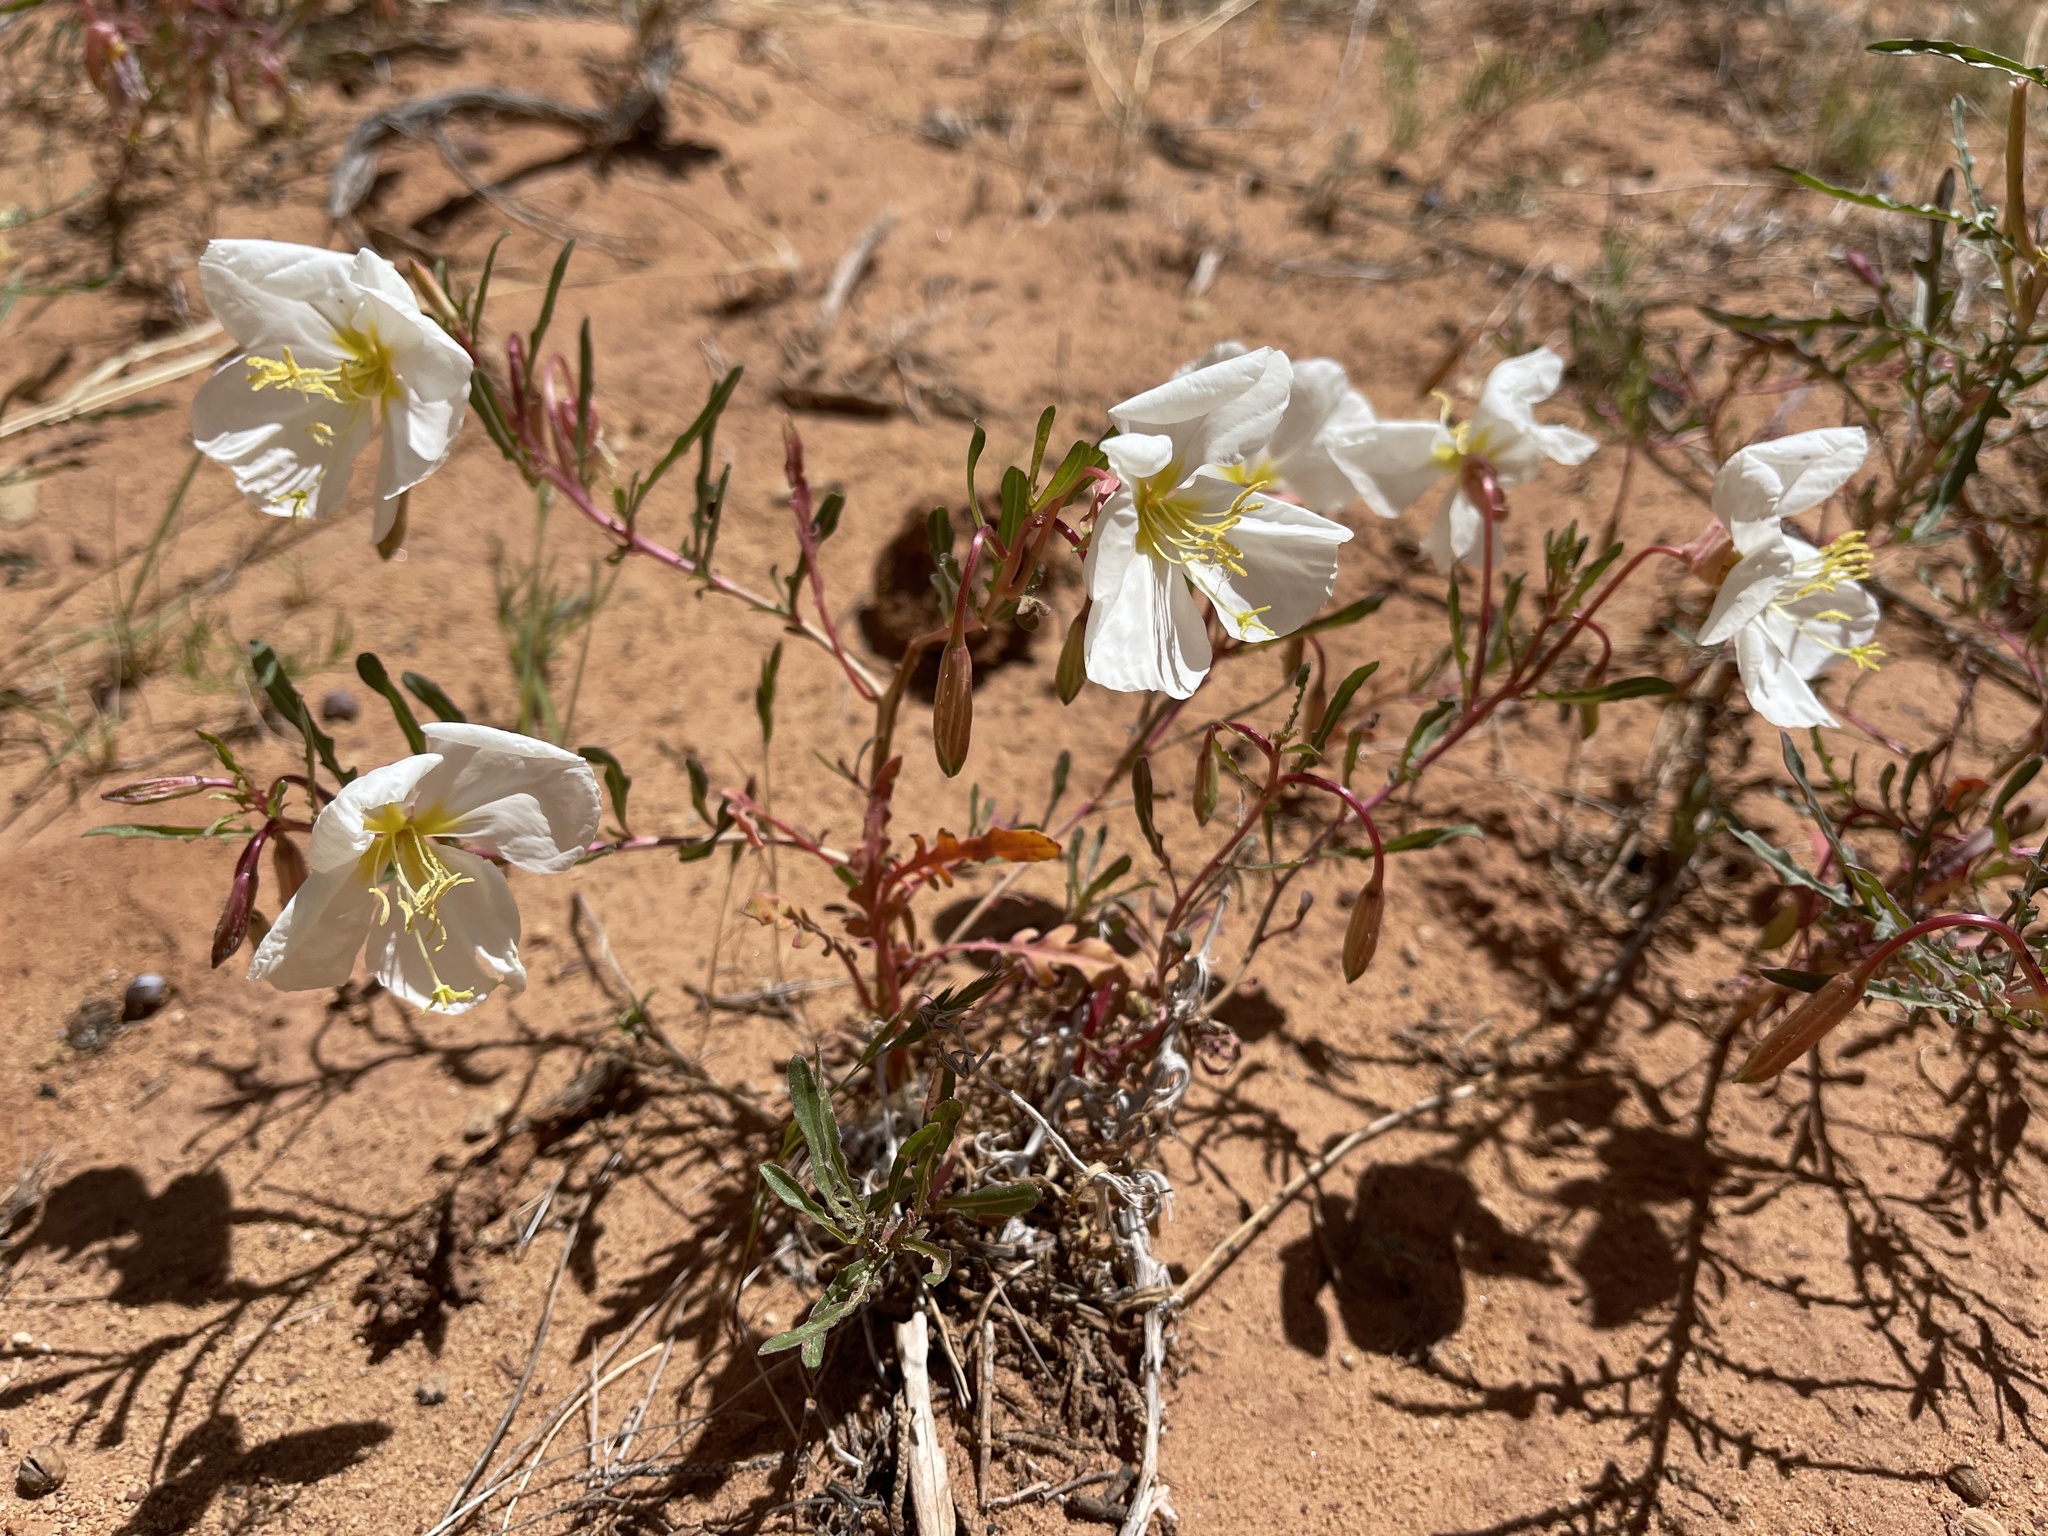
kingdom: Plantae
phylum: Tracheophyta
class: Magnoliopsida
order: Myrtales
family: Onagraceae
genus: Oenothera
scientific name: Oenothera pallida
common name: Pale evening-primrose
